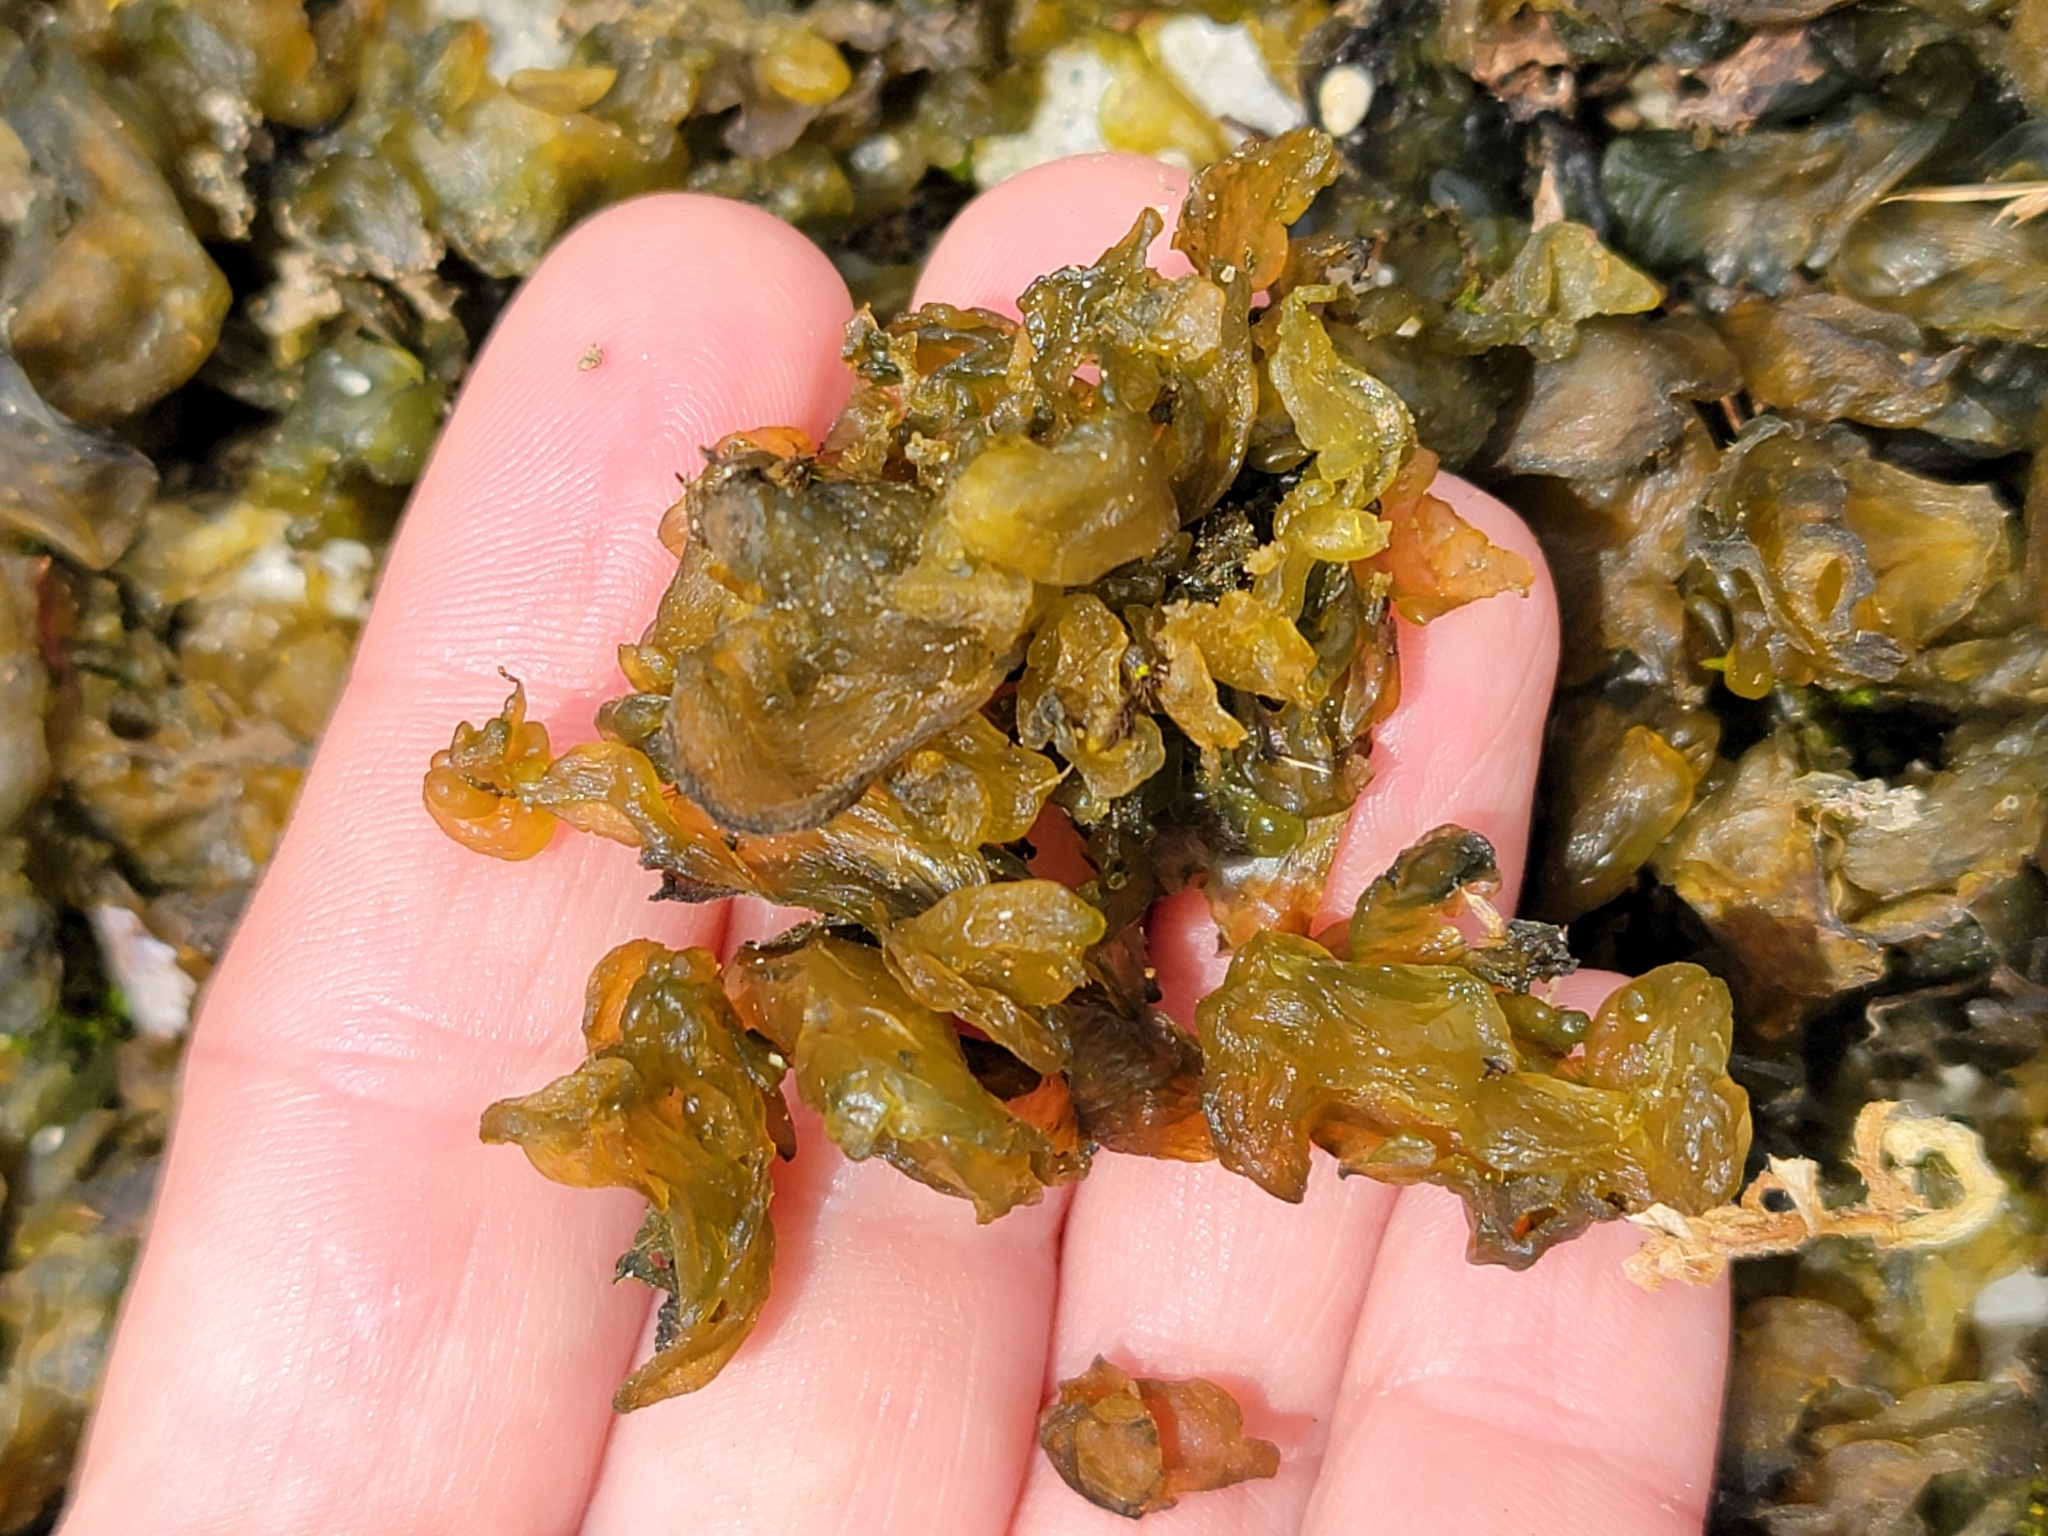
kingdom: Bacteria
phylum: Cyanobacteria
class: Cyanobacteriia
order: Cyanobacteriales
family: Nostocaceae
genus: Nostoc
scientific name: Nostoc commune
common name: Star jelly
